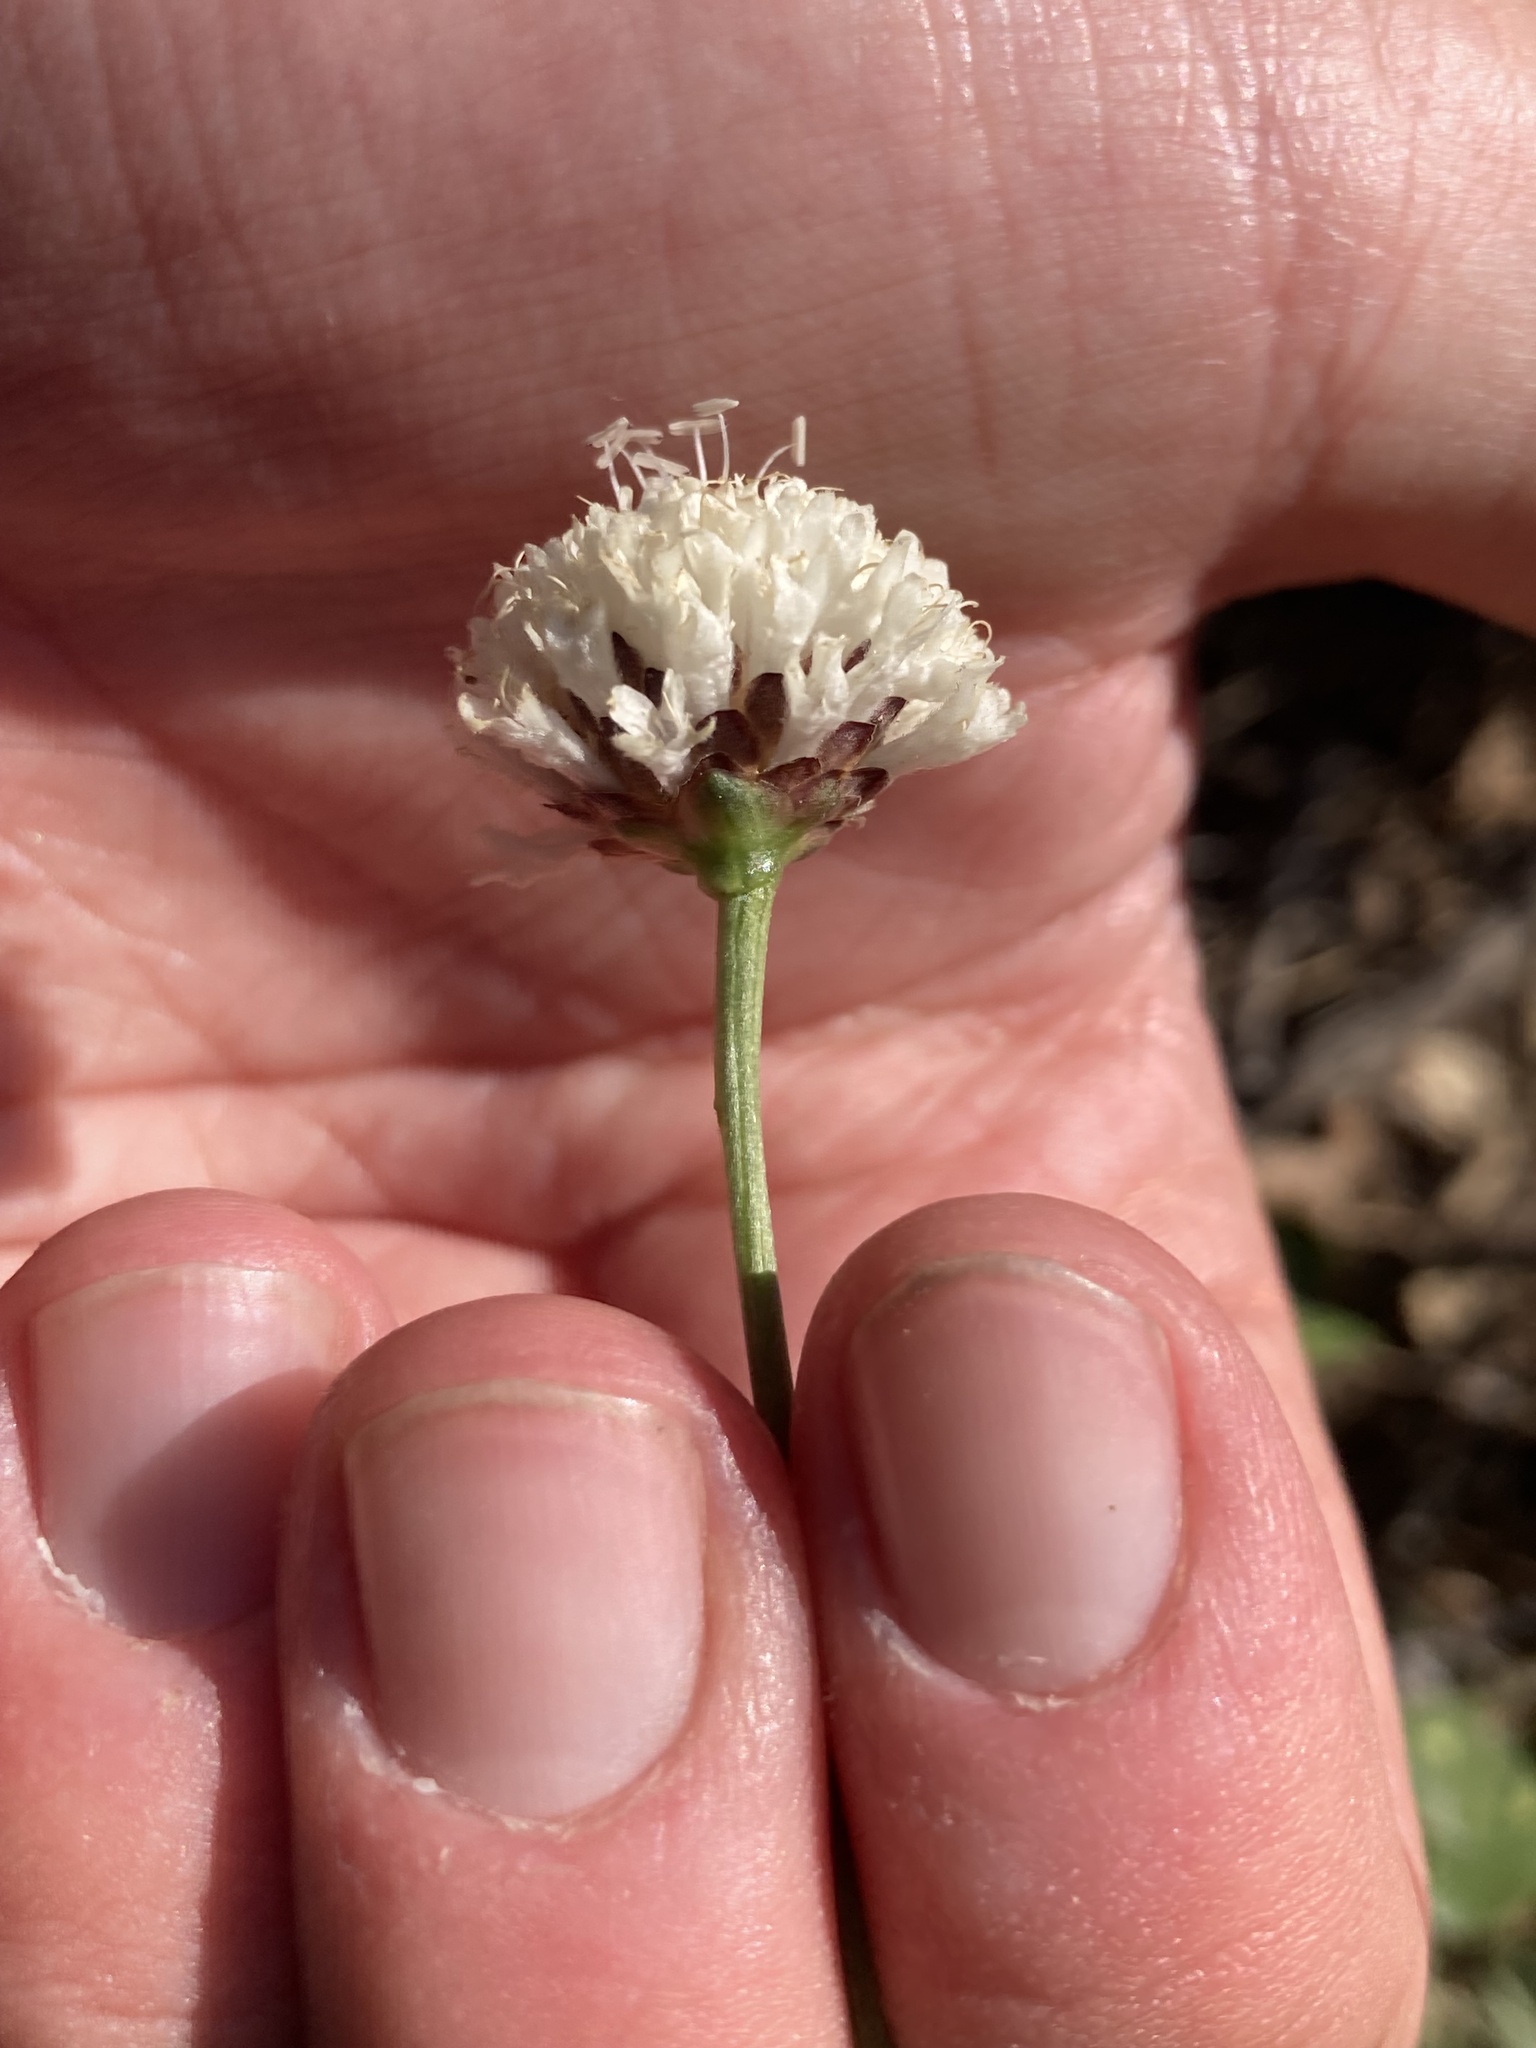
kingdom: Plantae
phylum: Tracheophyta
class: Magnoliopsida
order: Dipsacales
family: Caprifoliaceae
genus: Cephalaria
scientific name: Cephalaria leucantha
